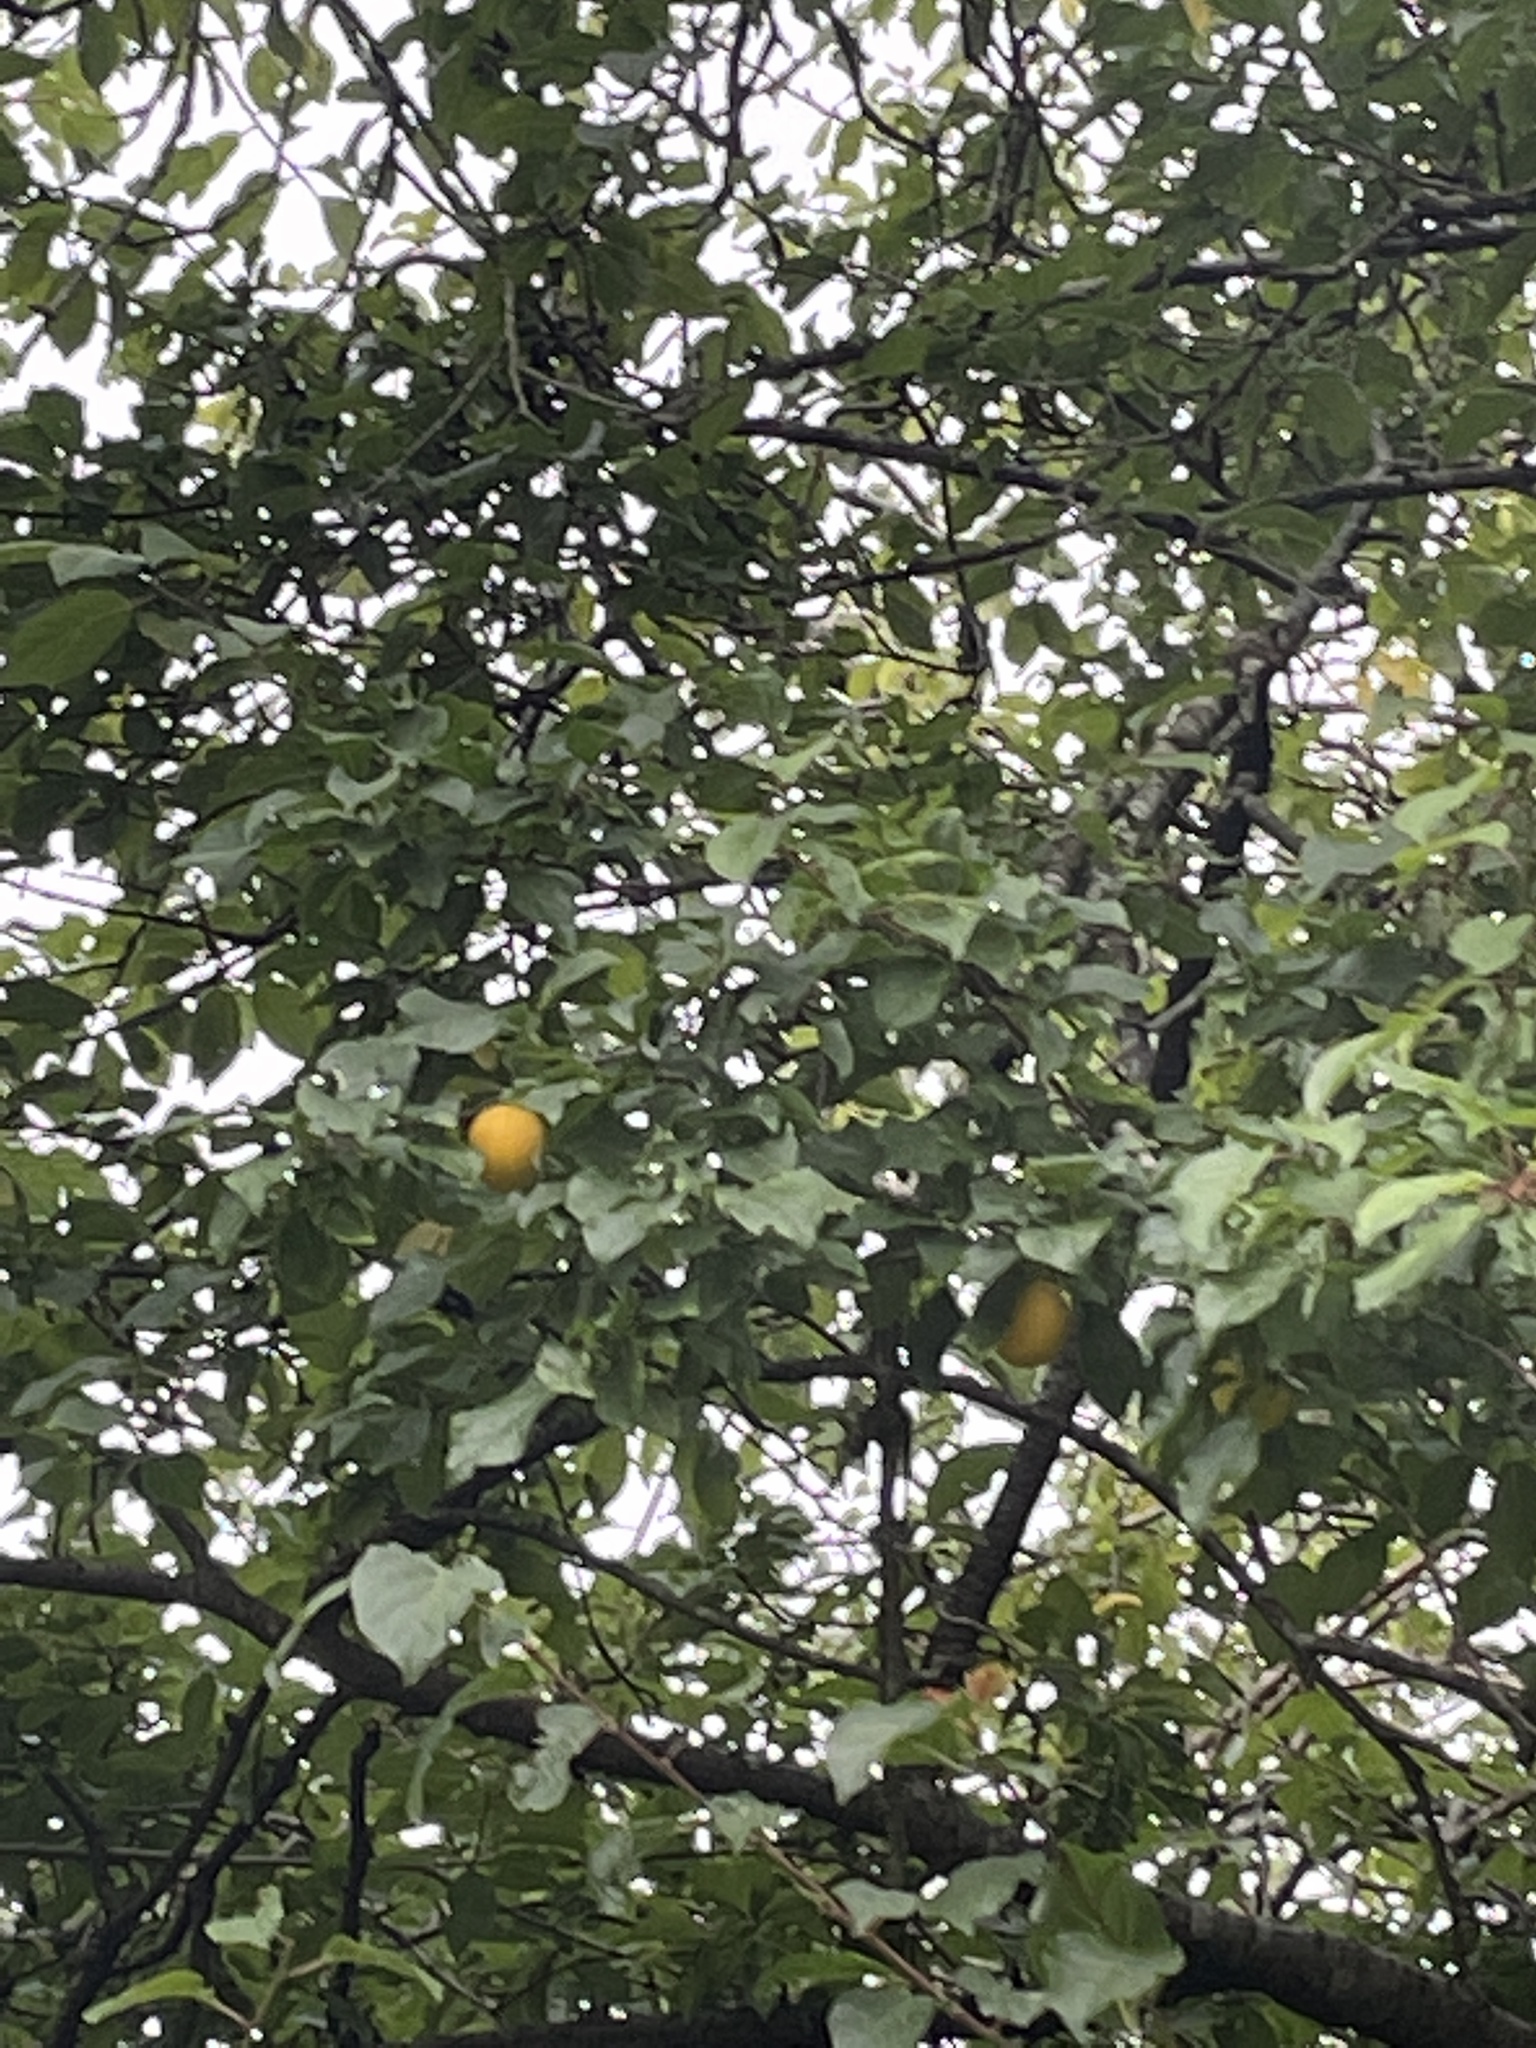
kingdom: Plantae
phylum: Tracheophyta
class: Magnoliopsida
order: Rosales
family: Rosaceae
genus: Prunus
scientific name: Prunus domestica
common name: Wild plum
